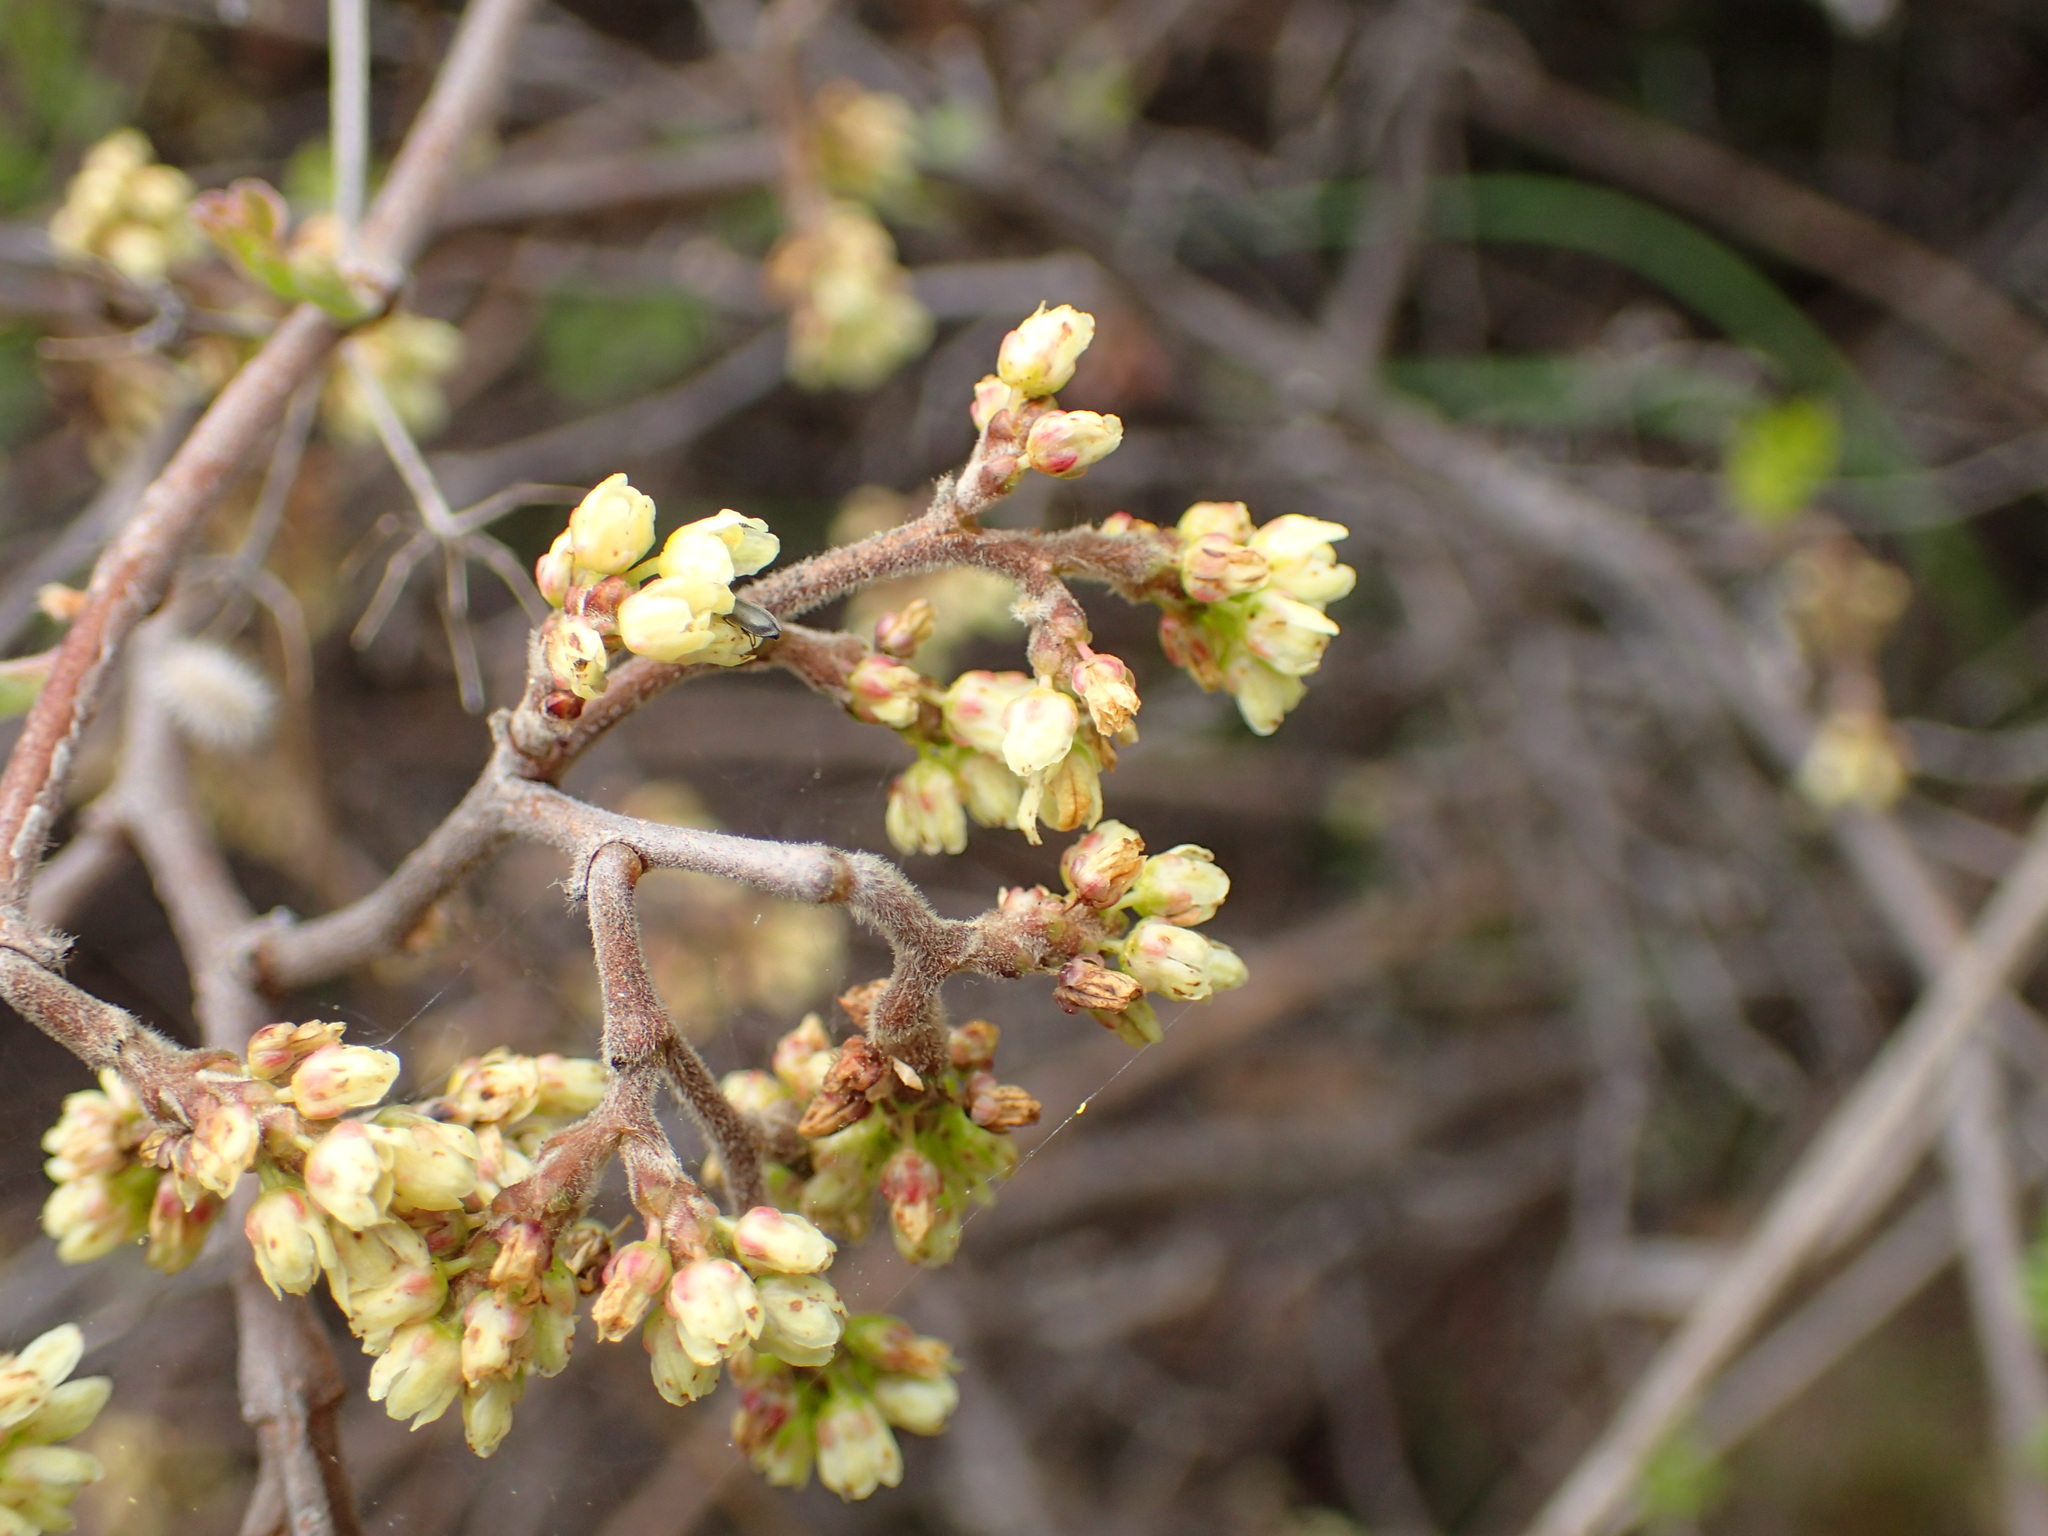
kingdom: Plantae
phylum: Tracheophyta
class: Magnoliopsida
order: Sapindales
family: Anacardiaceae
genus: Rhus
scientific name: Rhus aromatica
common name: Aromatic sumac
